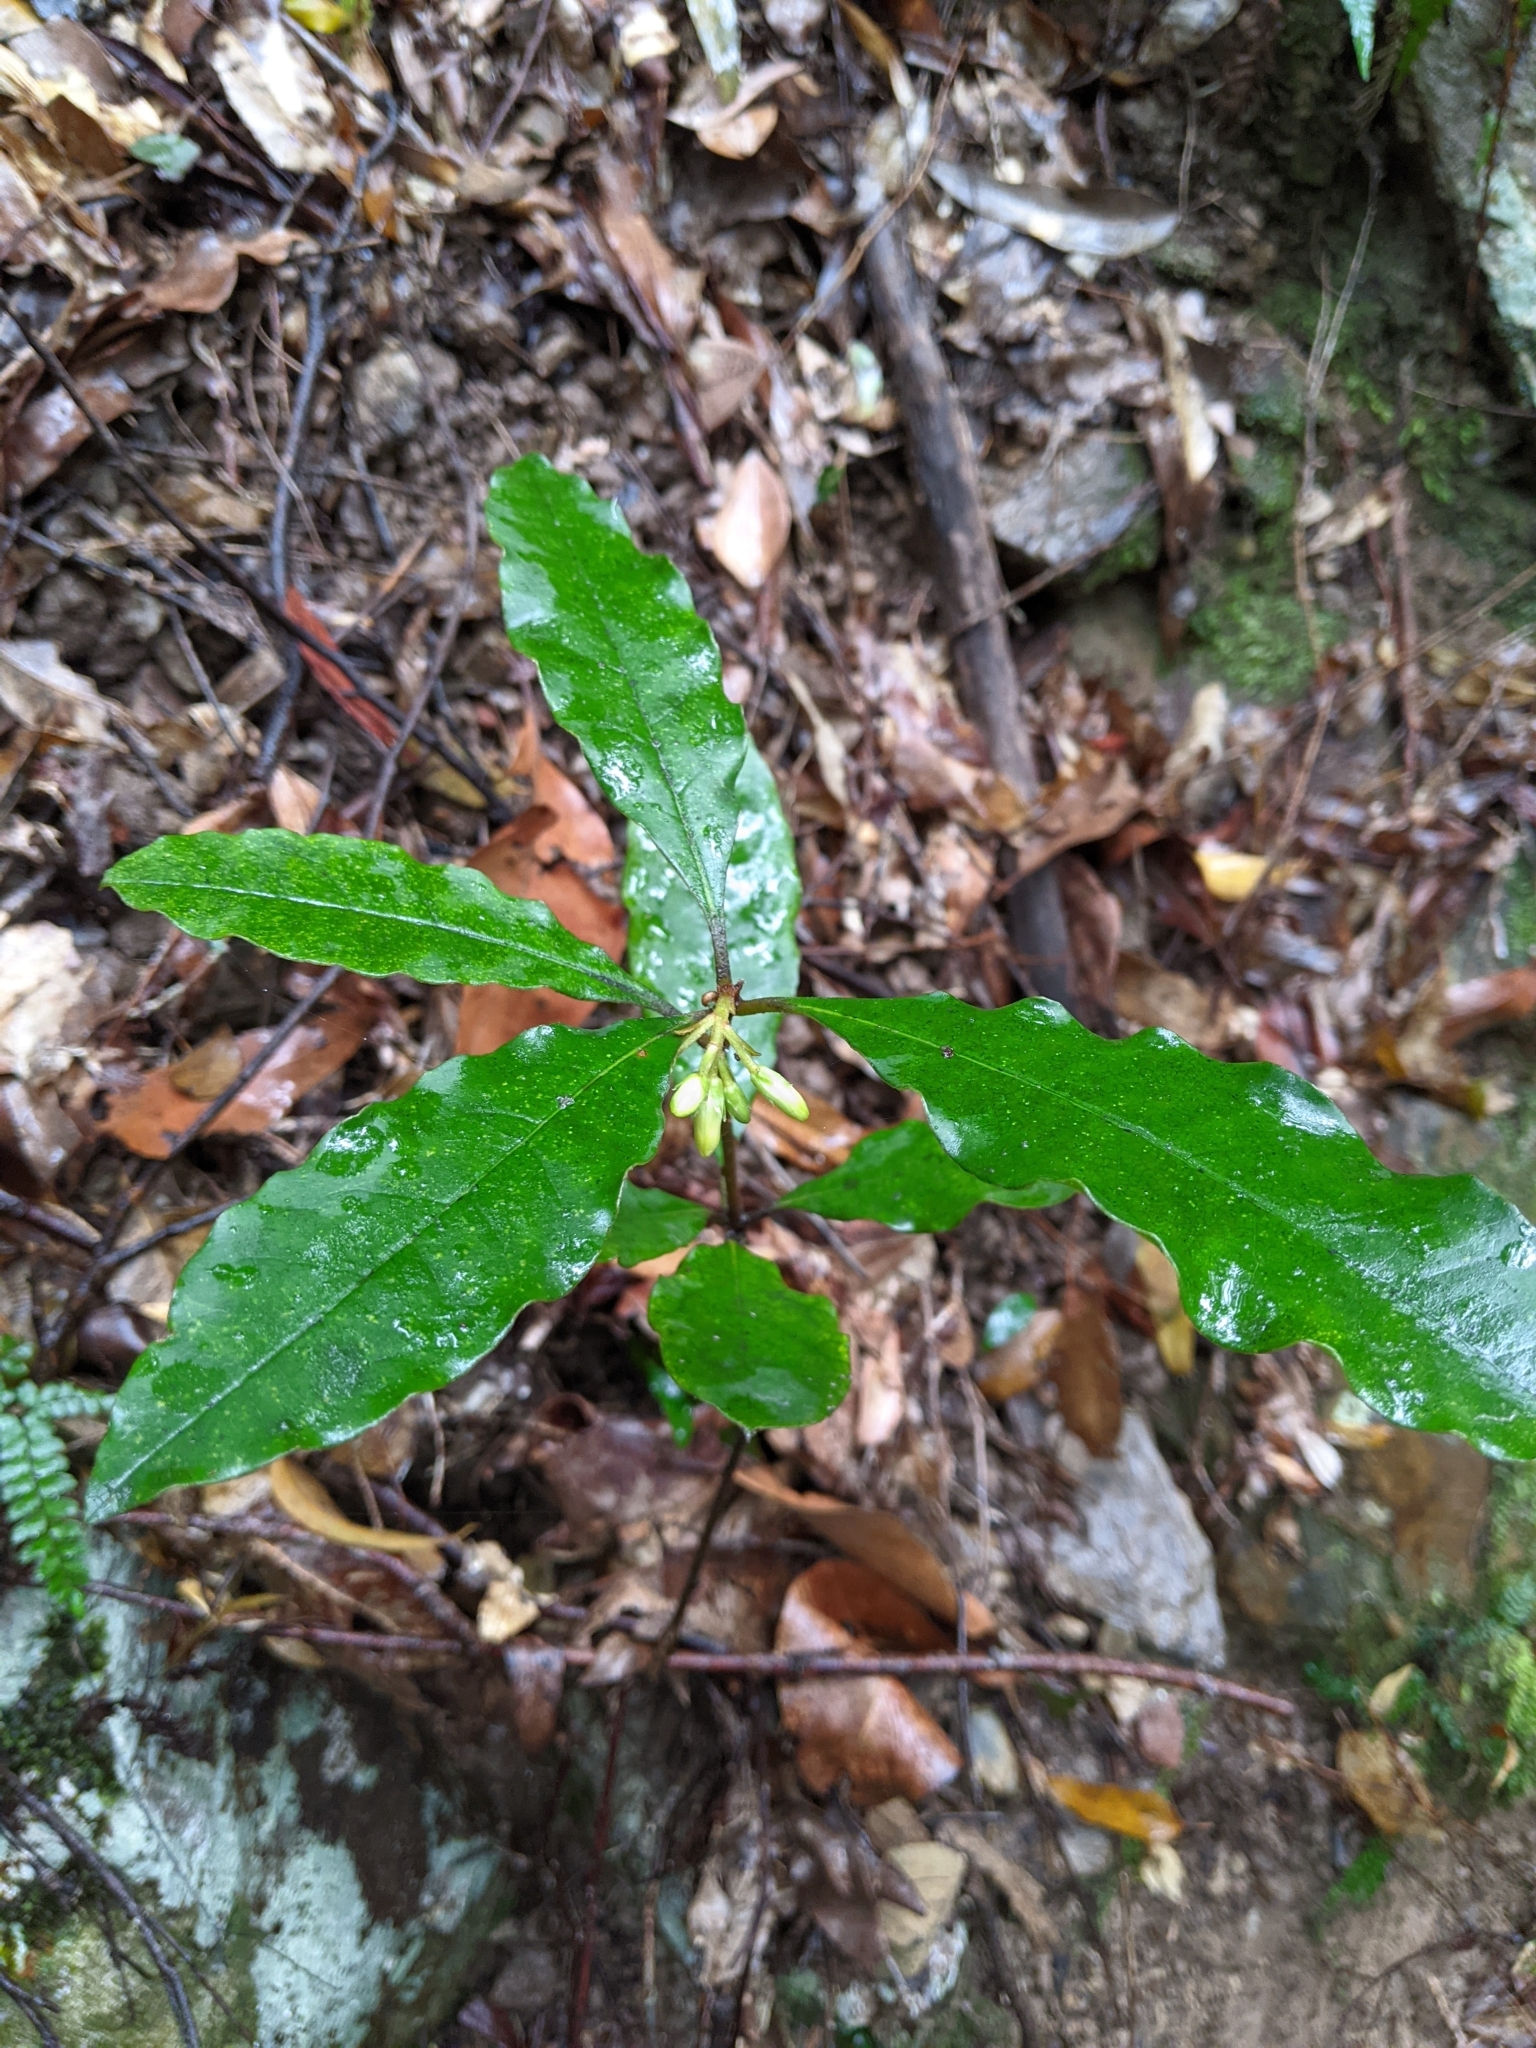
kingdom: Plantae
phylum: Tracheophyta
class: Magnoliopsida
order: Apiales
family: Pittosporaceae
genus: Pittosporum
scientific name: Pittosporum revolutum
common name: Brisbane-laurel
